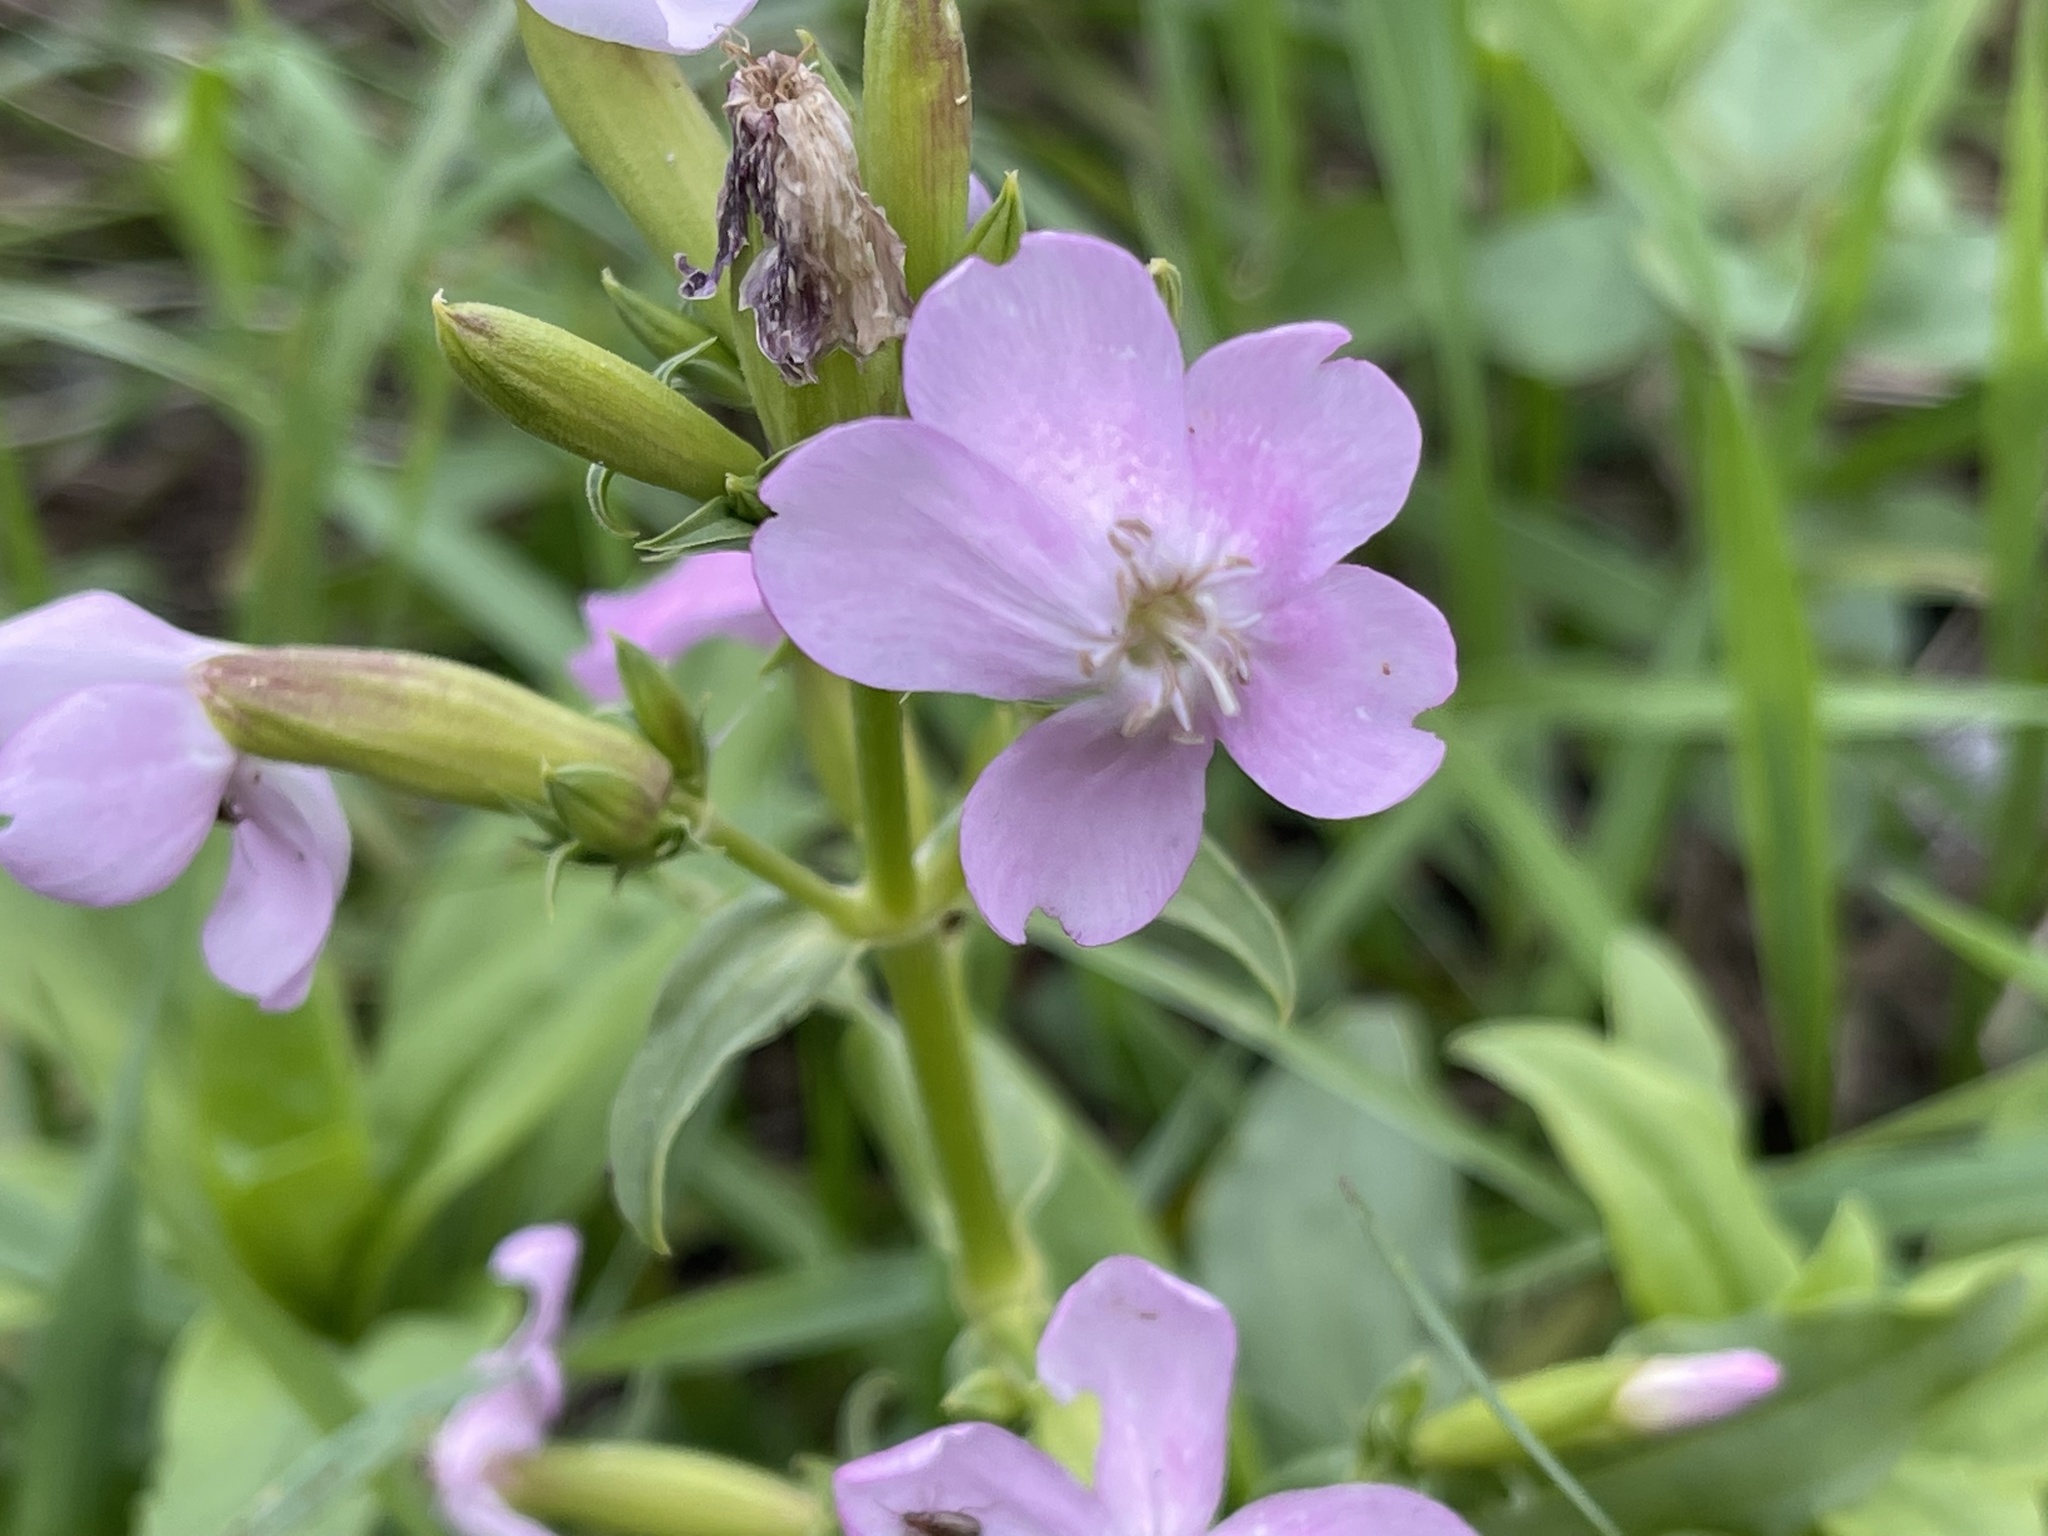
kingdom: Plantae
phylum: Tracheophyta
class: Magnoliopsida
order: Caryophyllales
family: Caryophyllaceae
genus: Saponaria
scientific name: Saponaria ocymoides
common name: Rock soapwort
